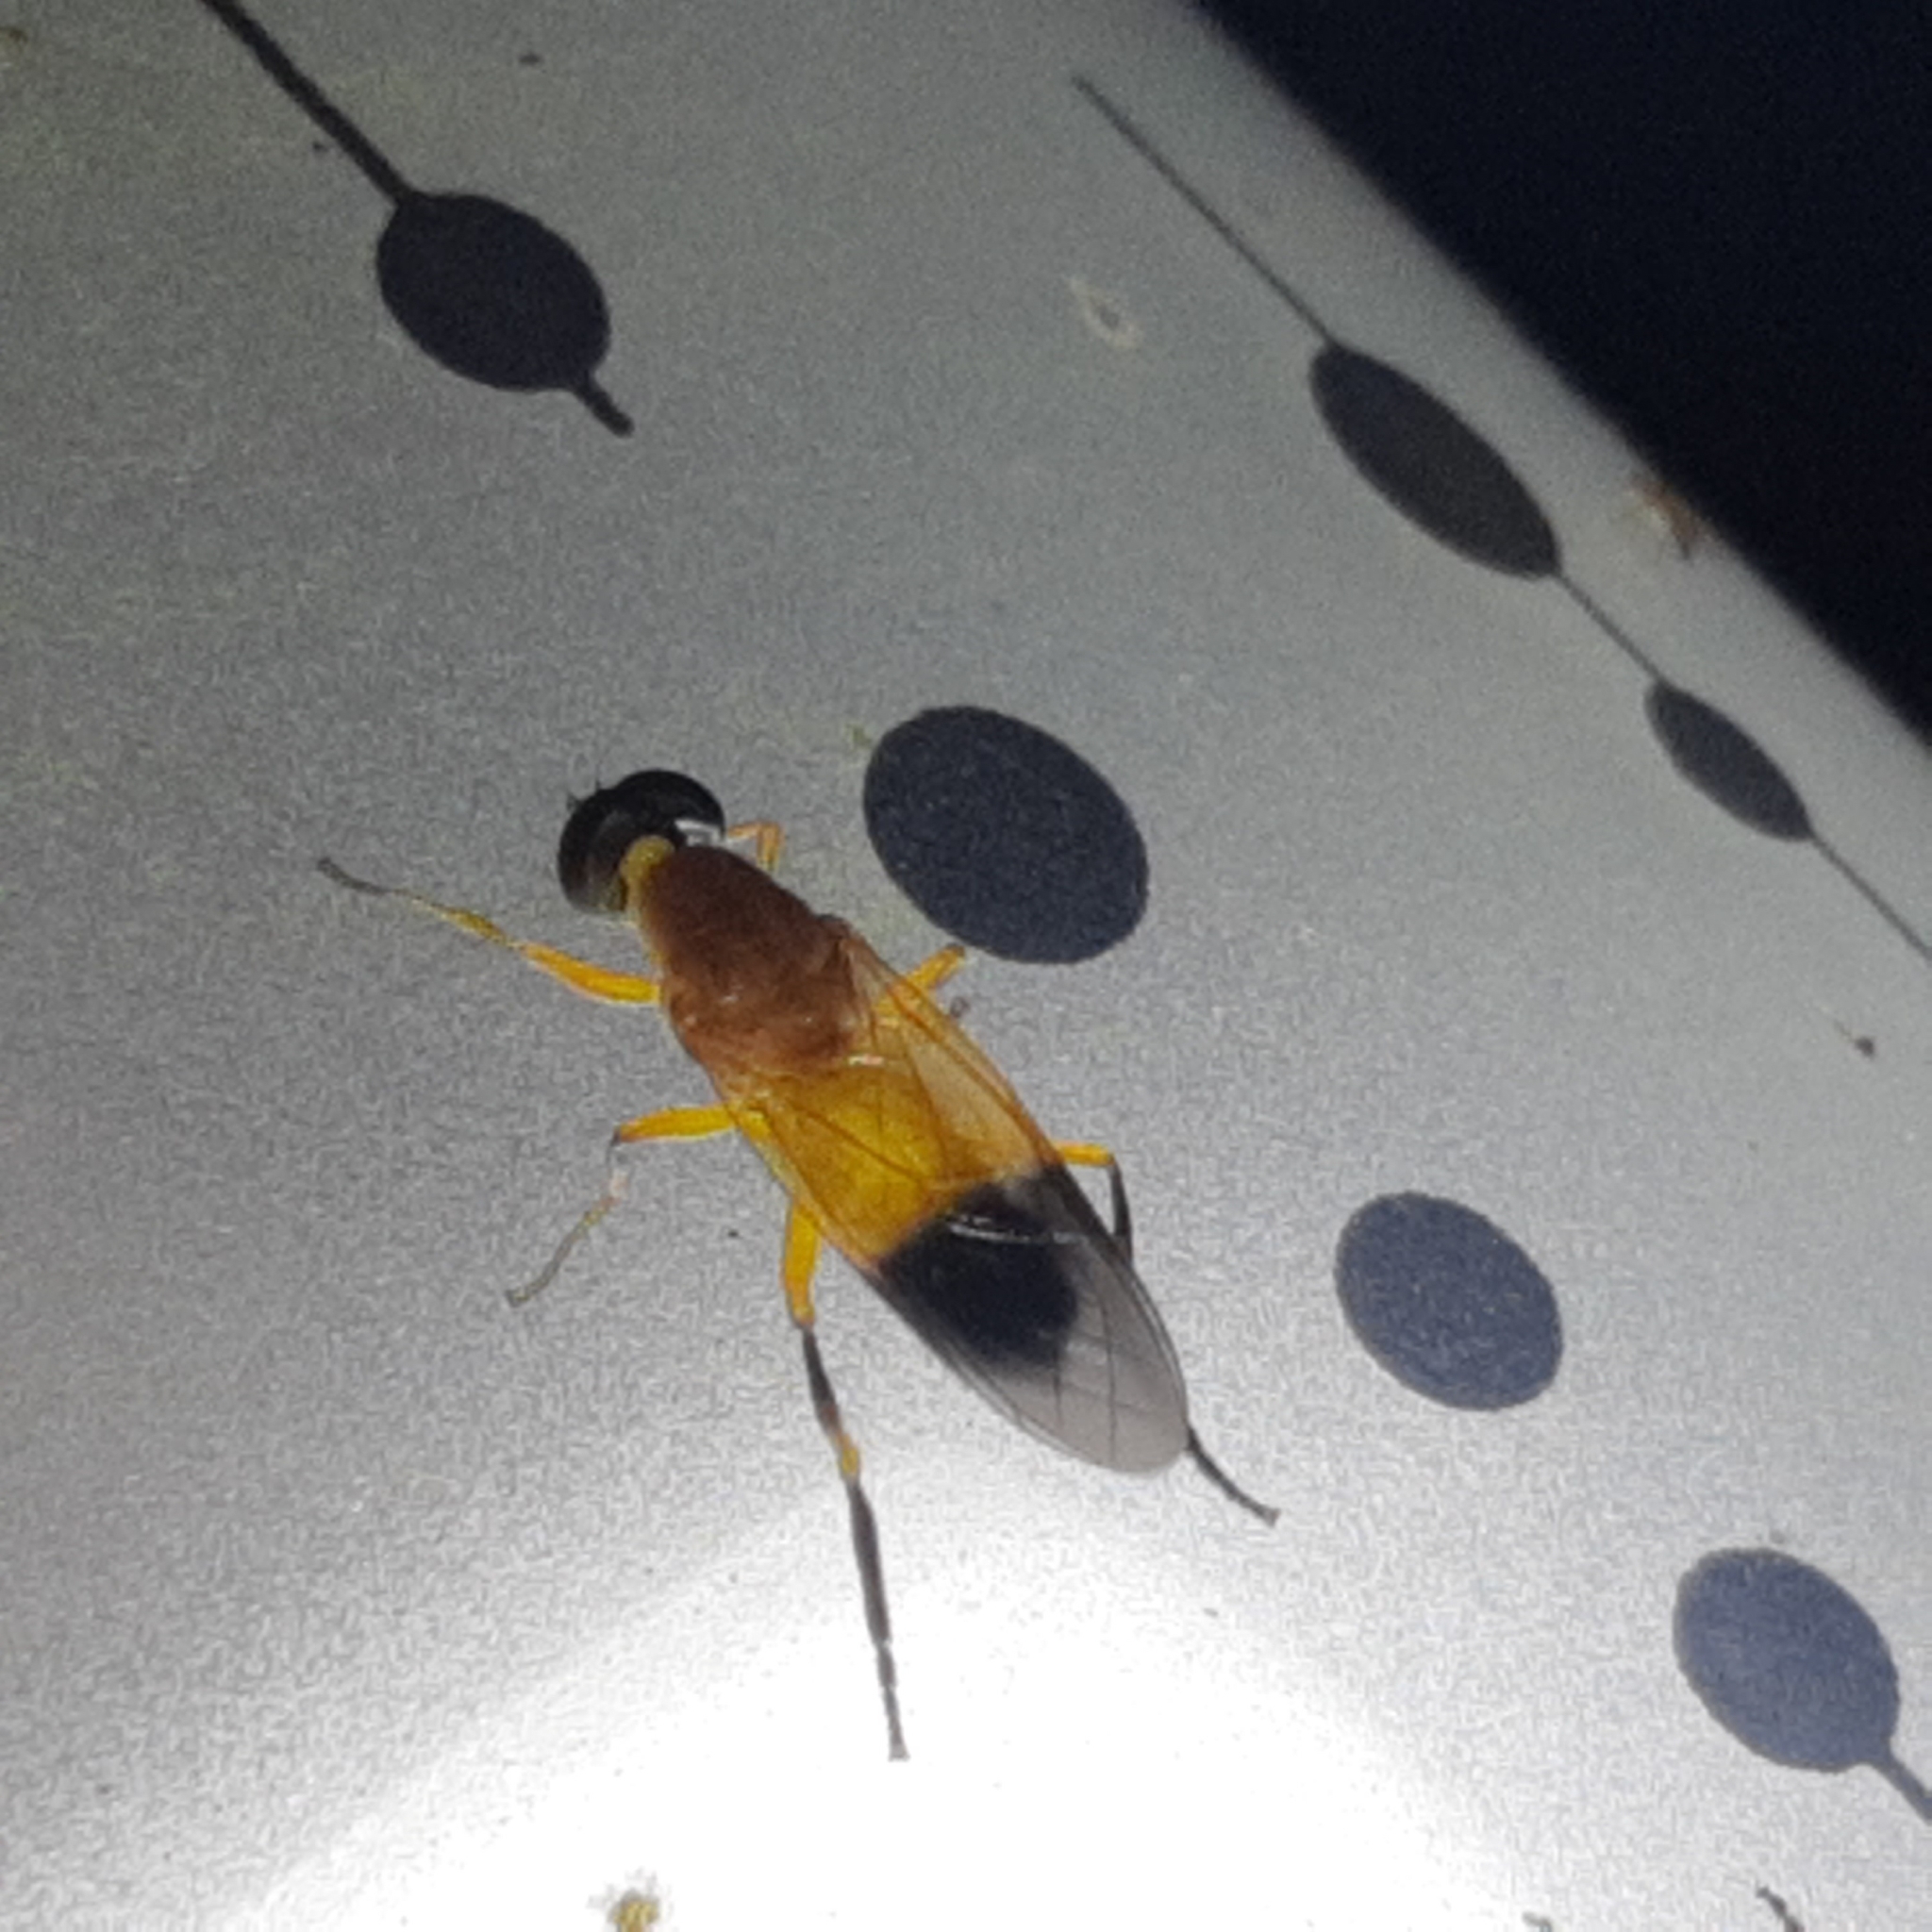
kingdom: Animalia
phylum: Arthropoda
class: Insecta
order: Diptera
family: Stratiomyidae
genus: Sargus
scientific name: Sargus analis
